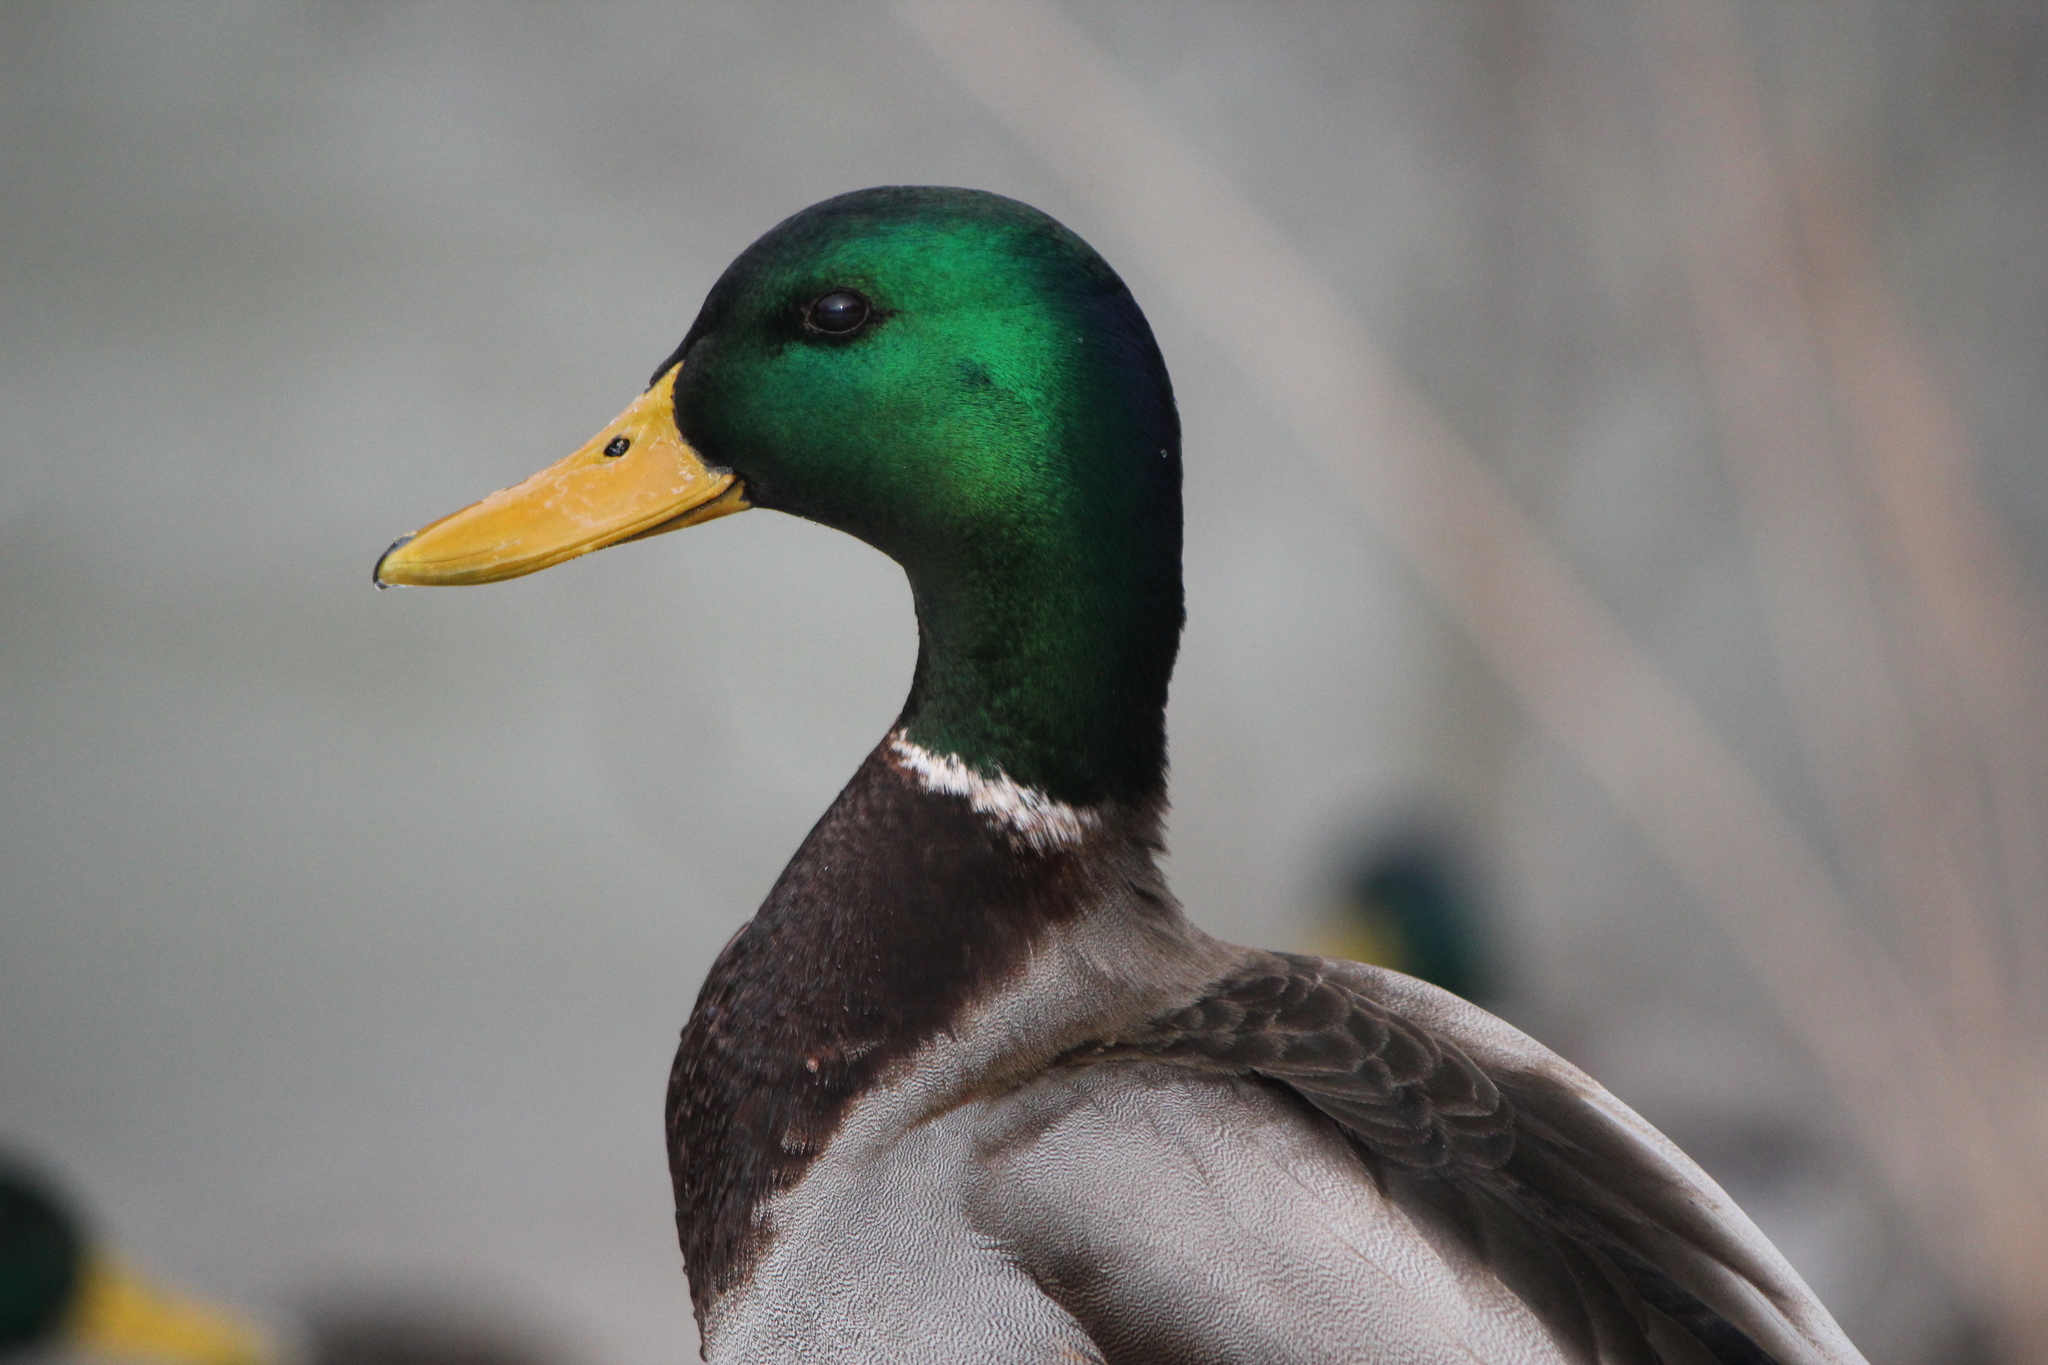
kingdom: Animalia
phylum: Chordata
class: Aves
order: Anseriformes
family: Anatidae
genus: Anas
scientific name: Anas platyrhynchos
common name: Mallard
